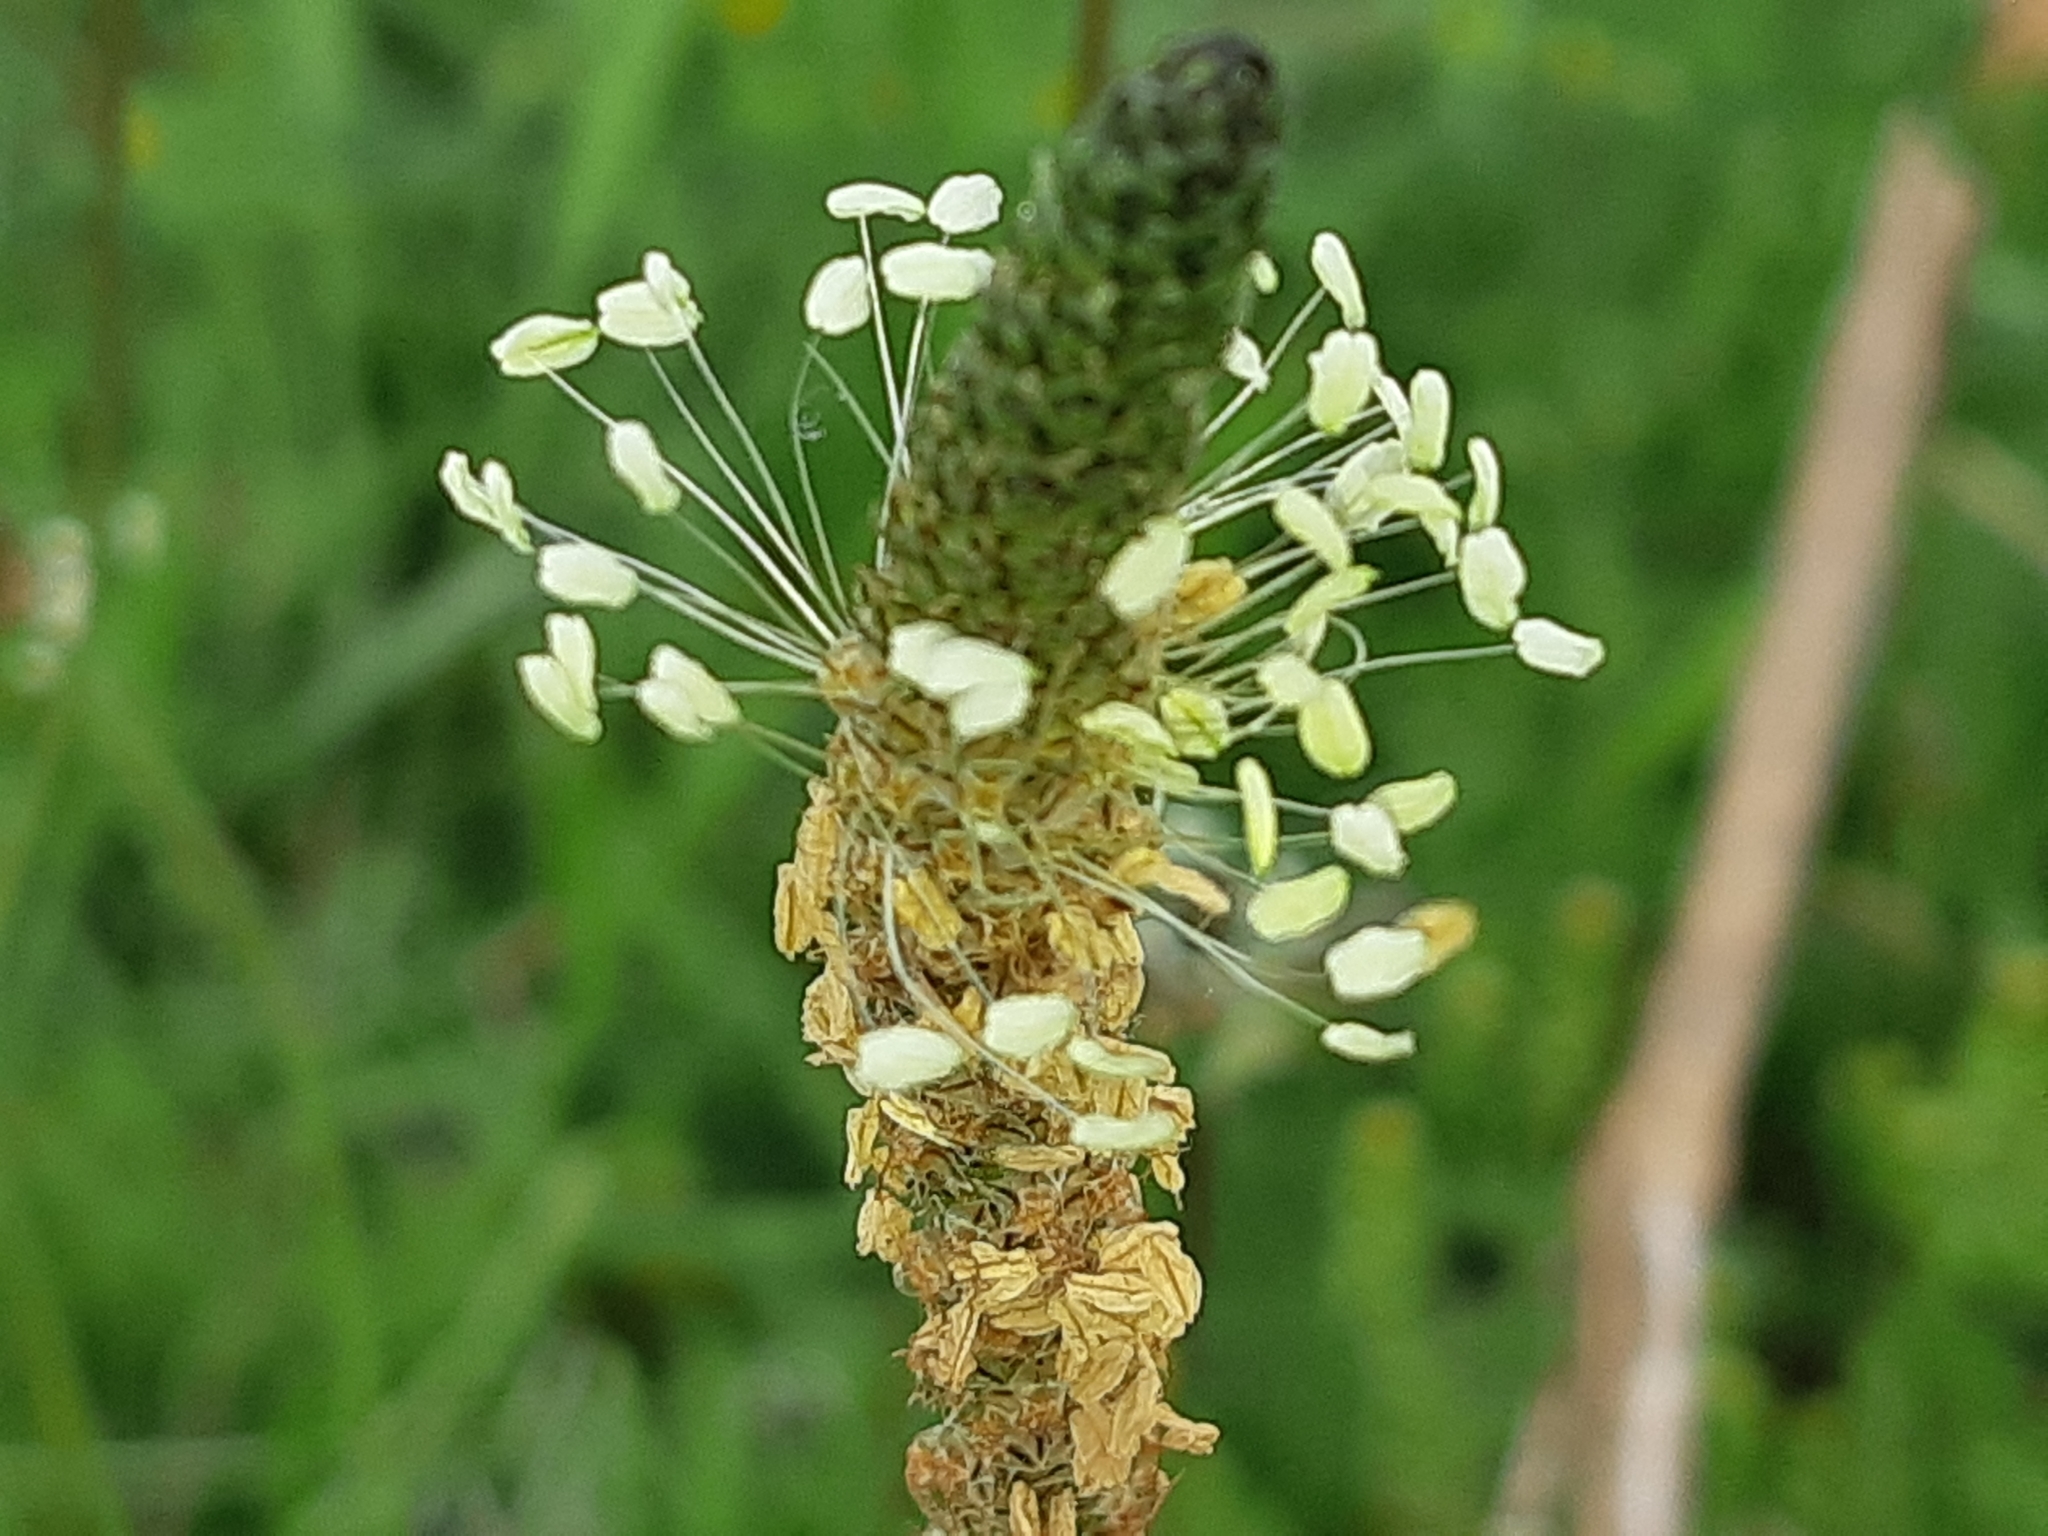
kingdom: Plantae
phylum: Tracheophyta
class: Magnoliopsida
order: Lamiales
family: Plantaginaceae
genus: Plantago
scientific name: Plantago lanceolata
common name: Ribwort plantain
